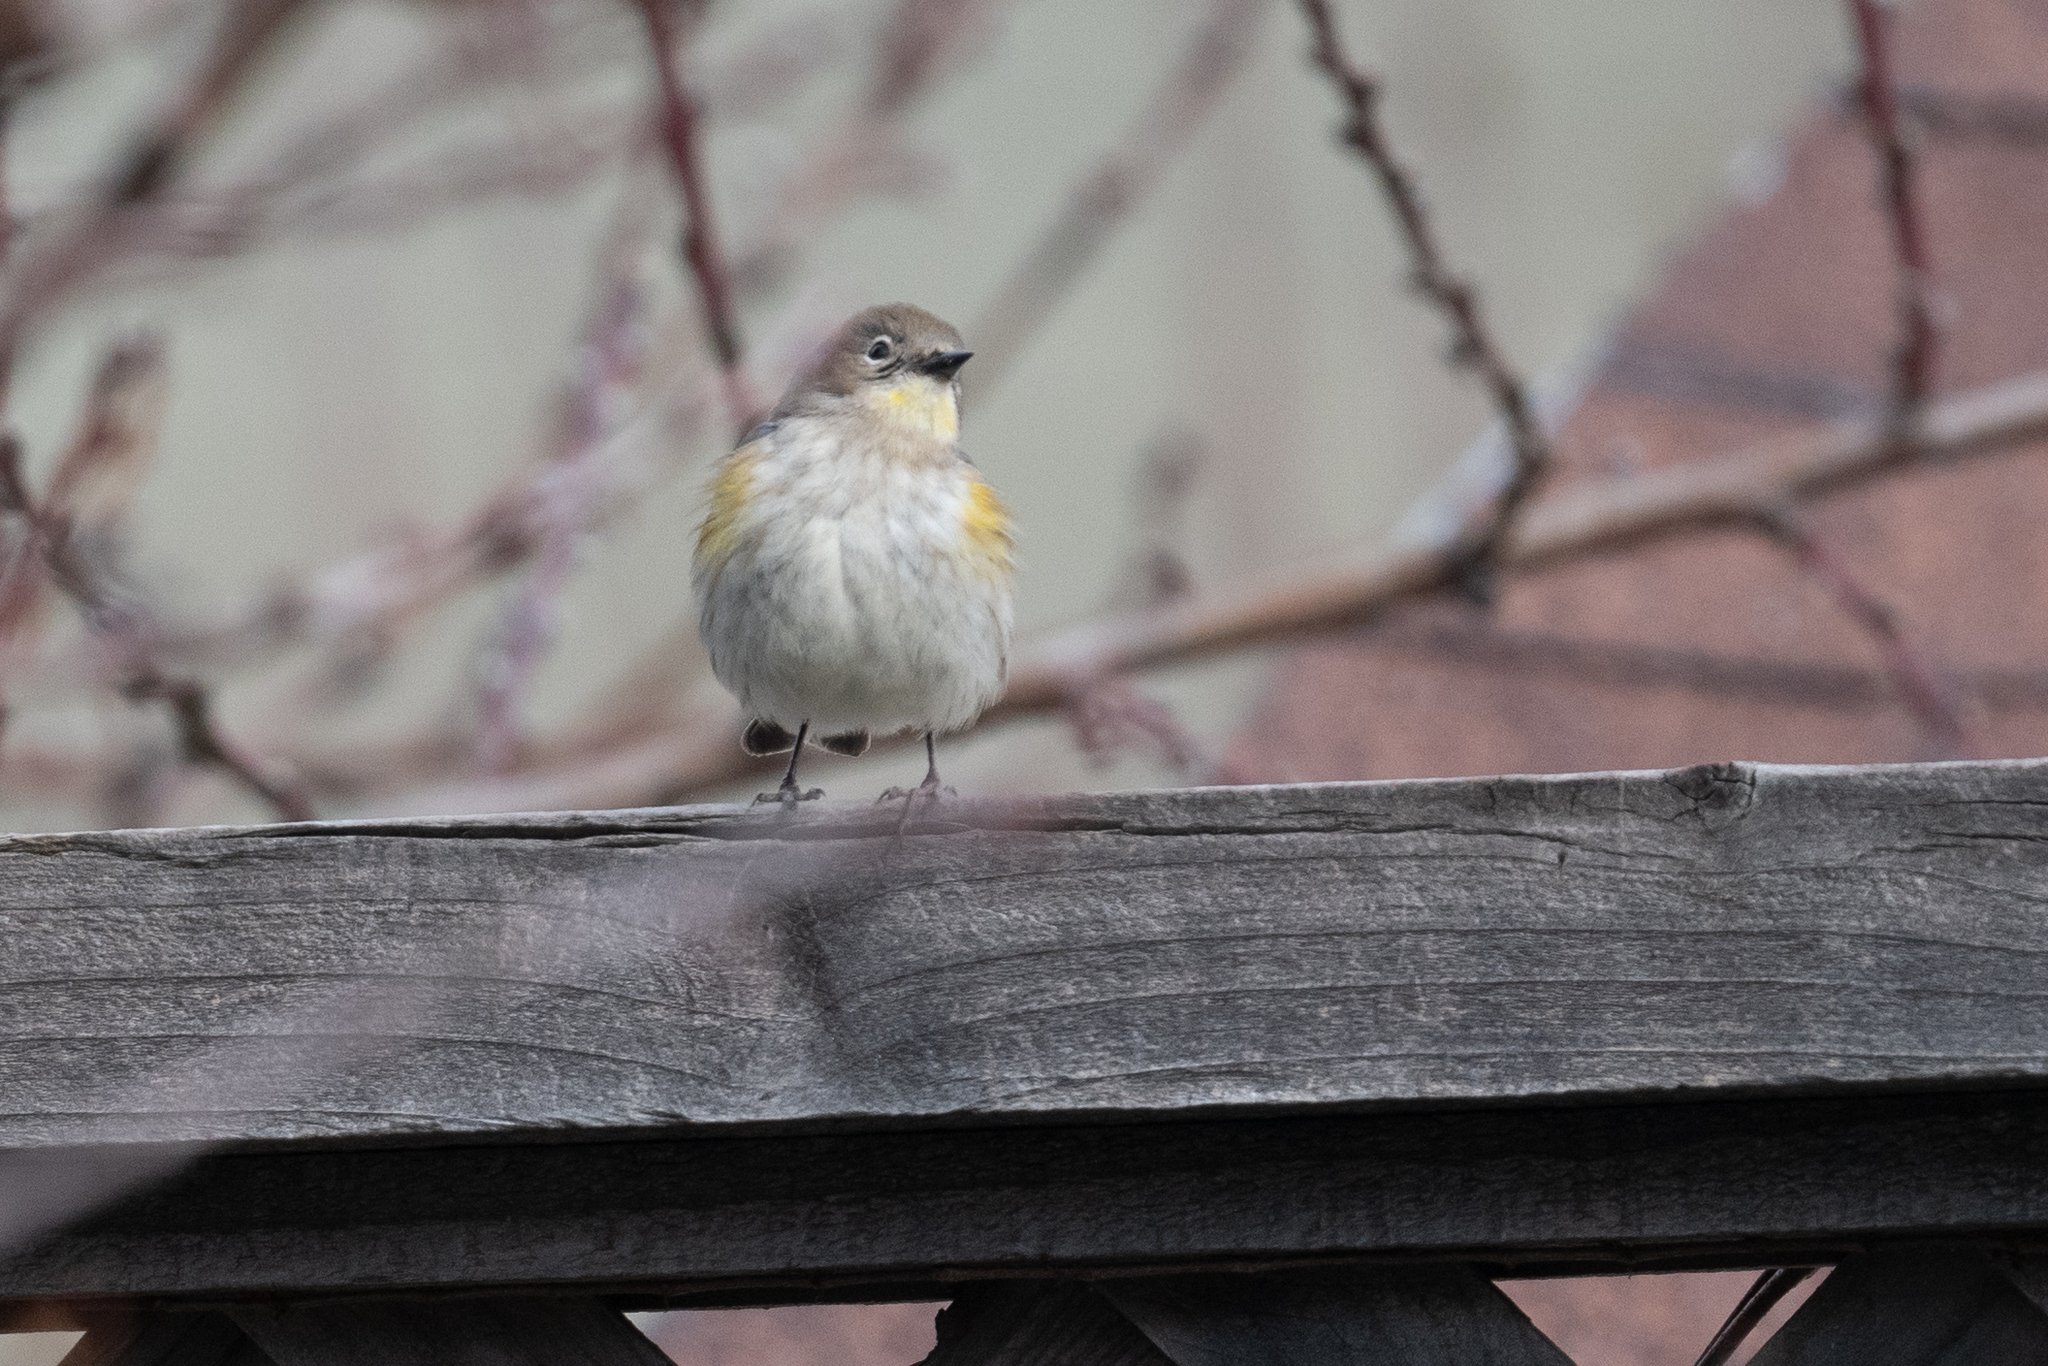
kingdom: Animalia
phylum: Chordata
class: Aves
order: Passeriformes
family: Parulidae
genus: Setophaga
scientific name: Setophaga coronata
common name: Myrtle warbler
